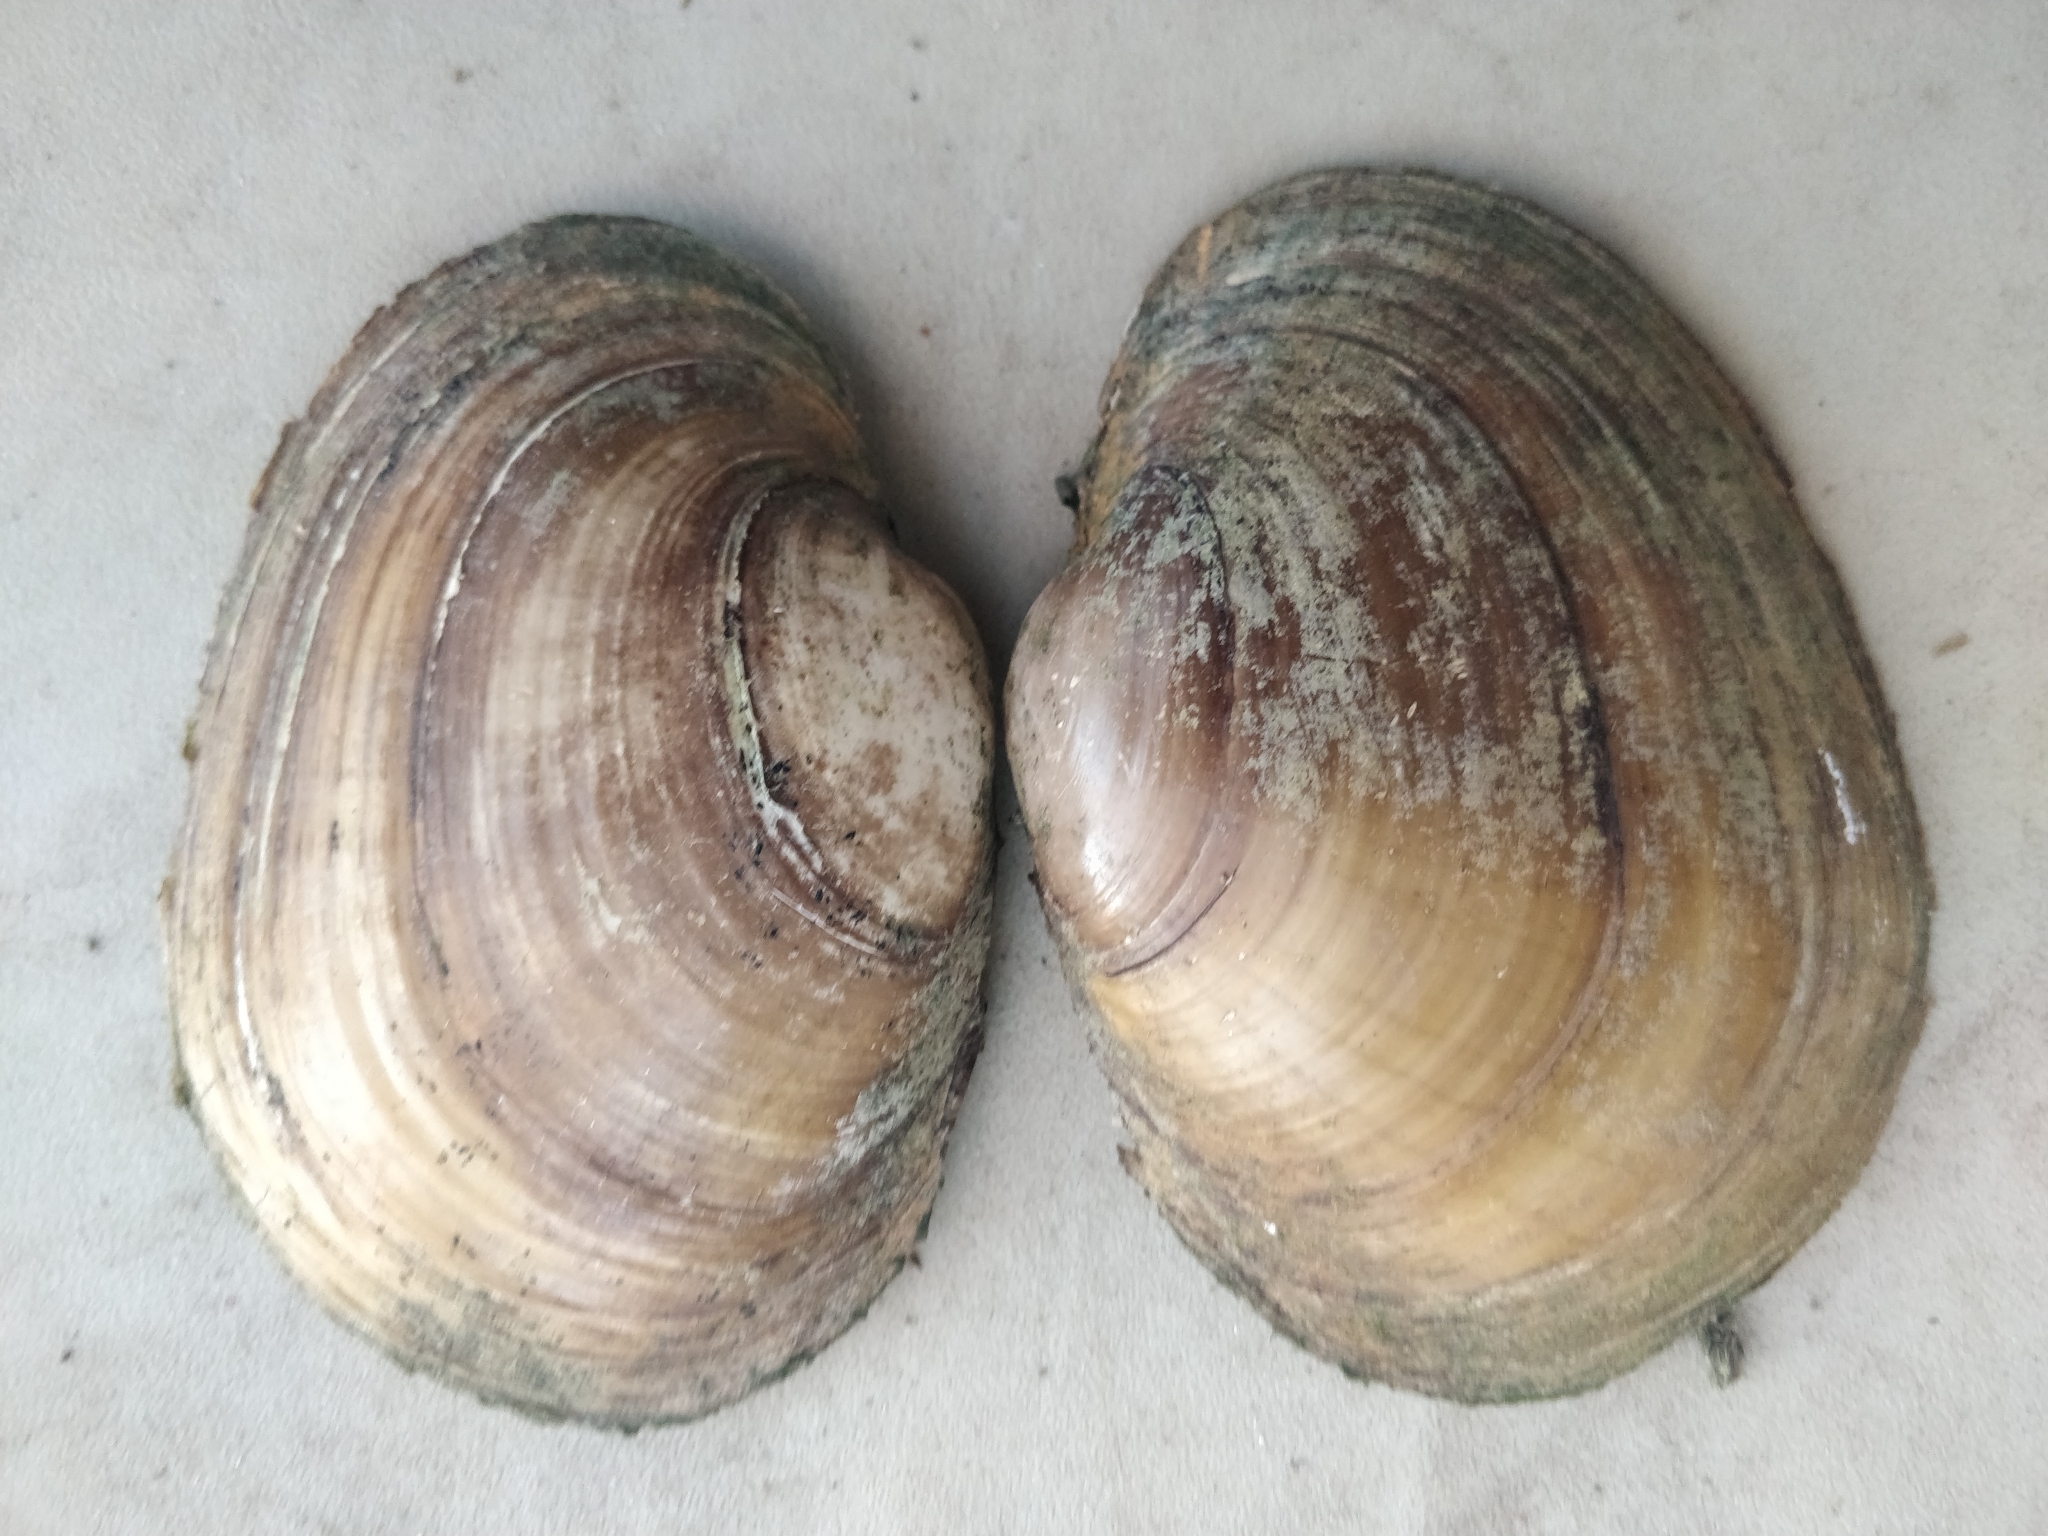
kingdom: Animalia
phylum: Mollusca
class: Bivalvia
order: Unionida
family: Unionidae
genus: Lampsilis
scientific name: Lampsilis cardium
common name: Plain pocketbook
